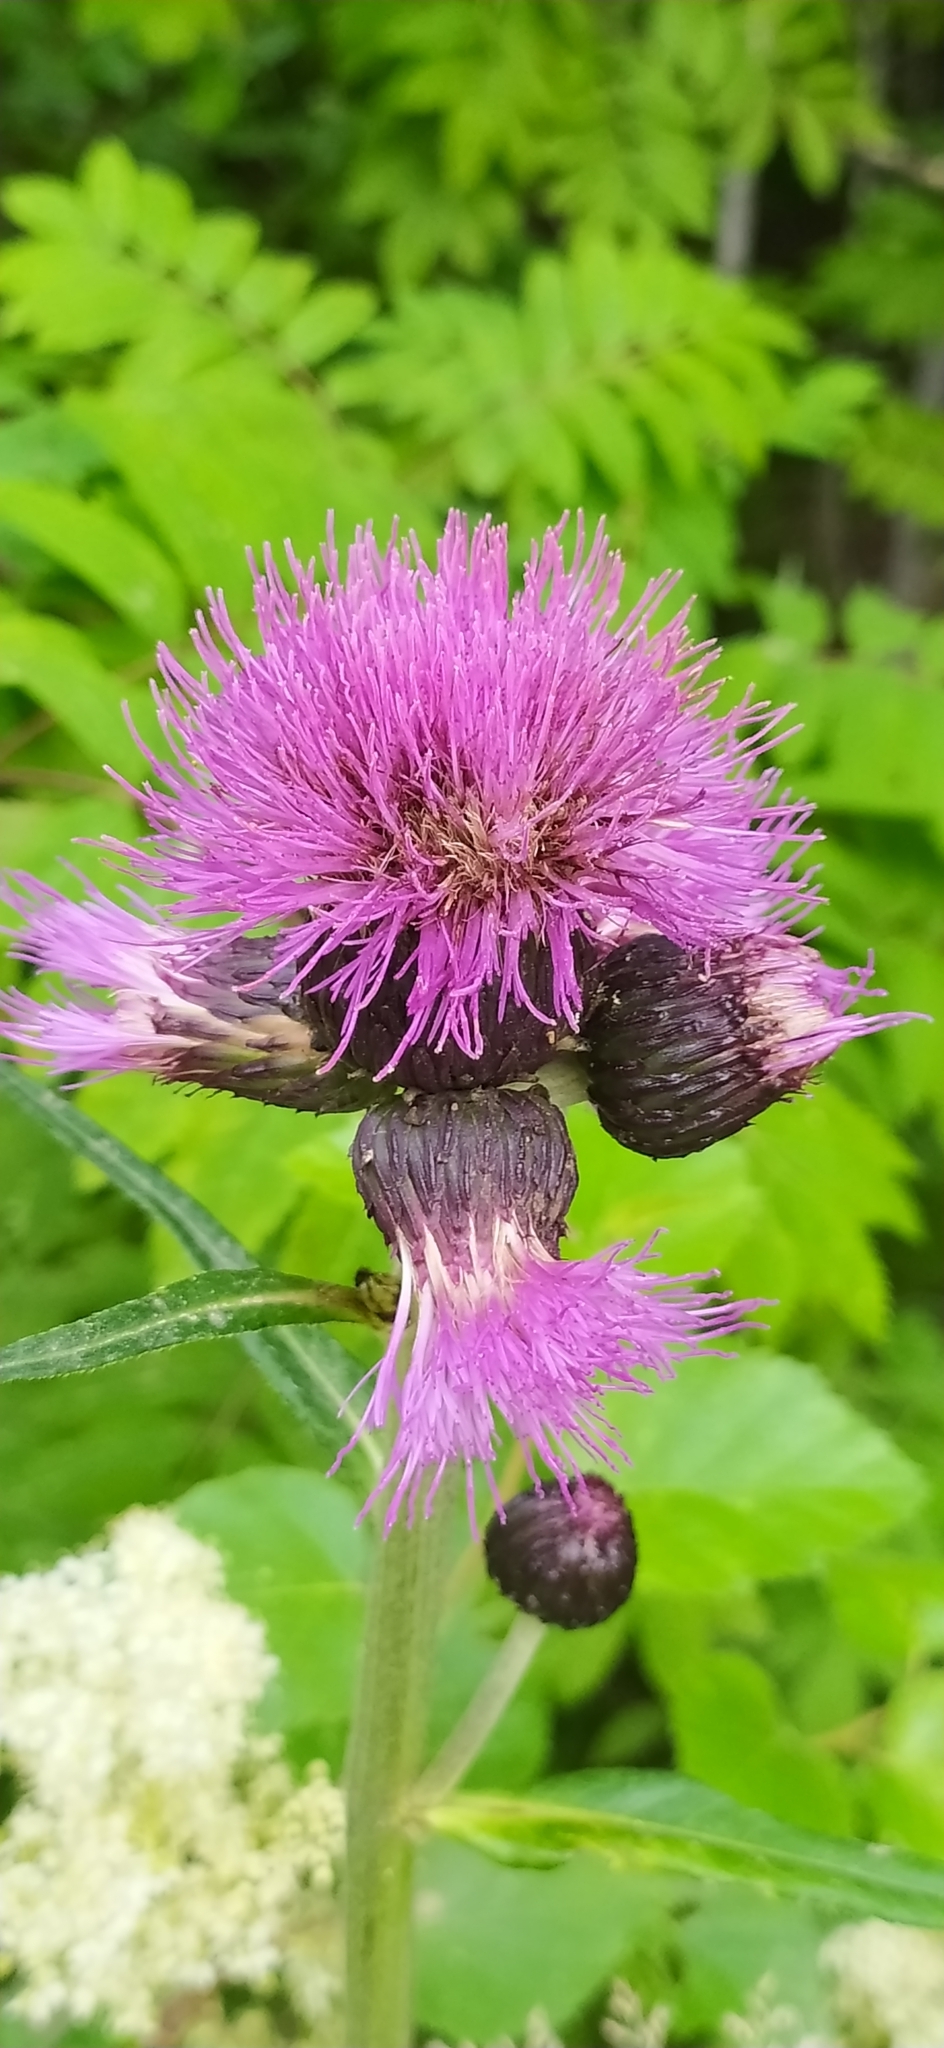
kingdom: Plantae
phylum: Tracheophyta
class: Magnoliopsida
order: Asterales
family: Asteraceae
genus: Cirsium
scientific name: Cirsium heterophyllum
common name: Melancholy thistle
